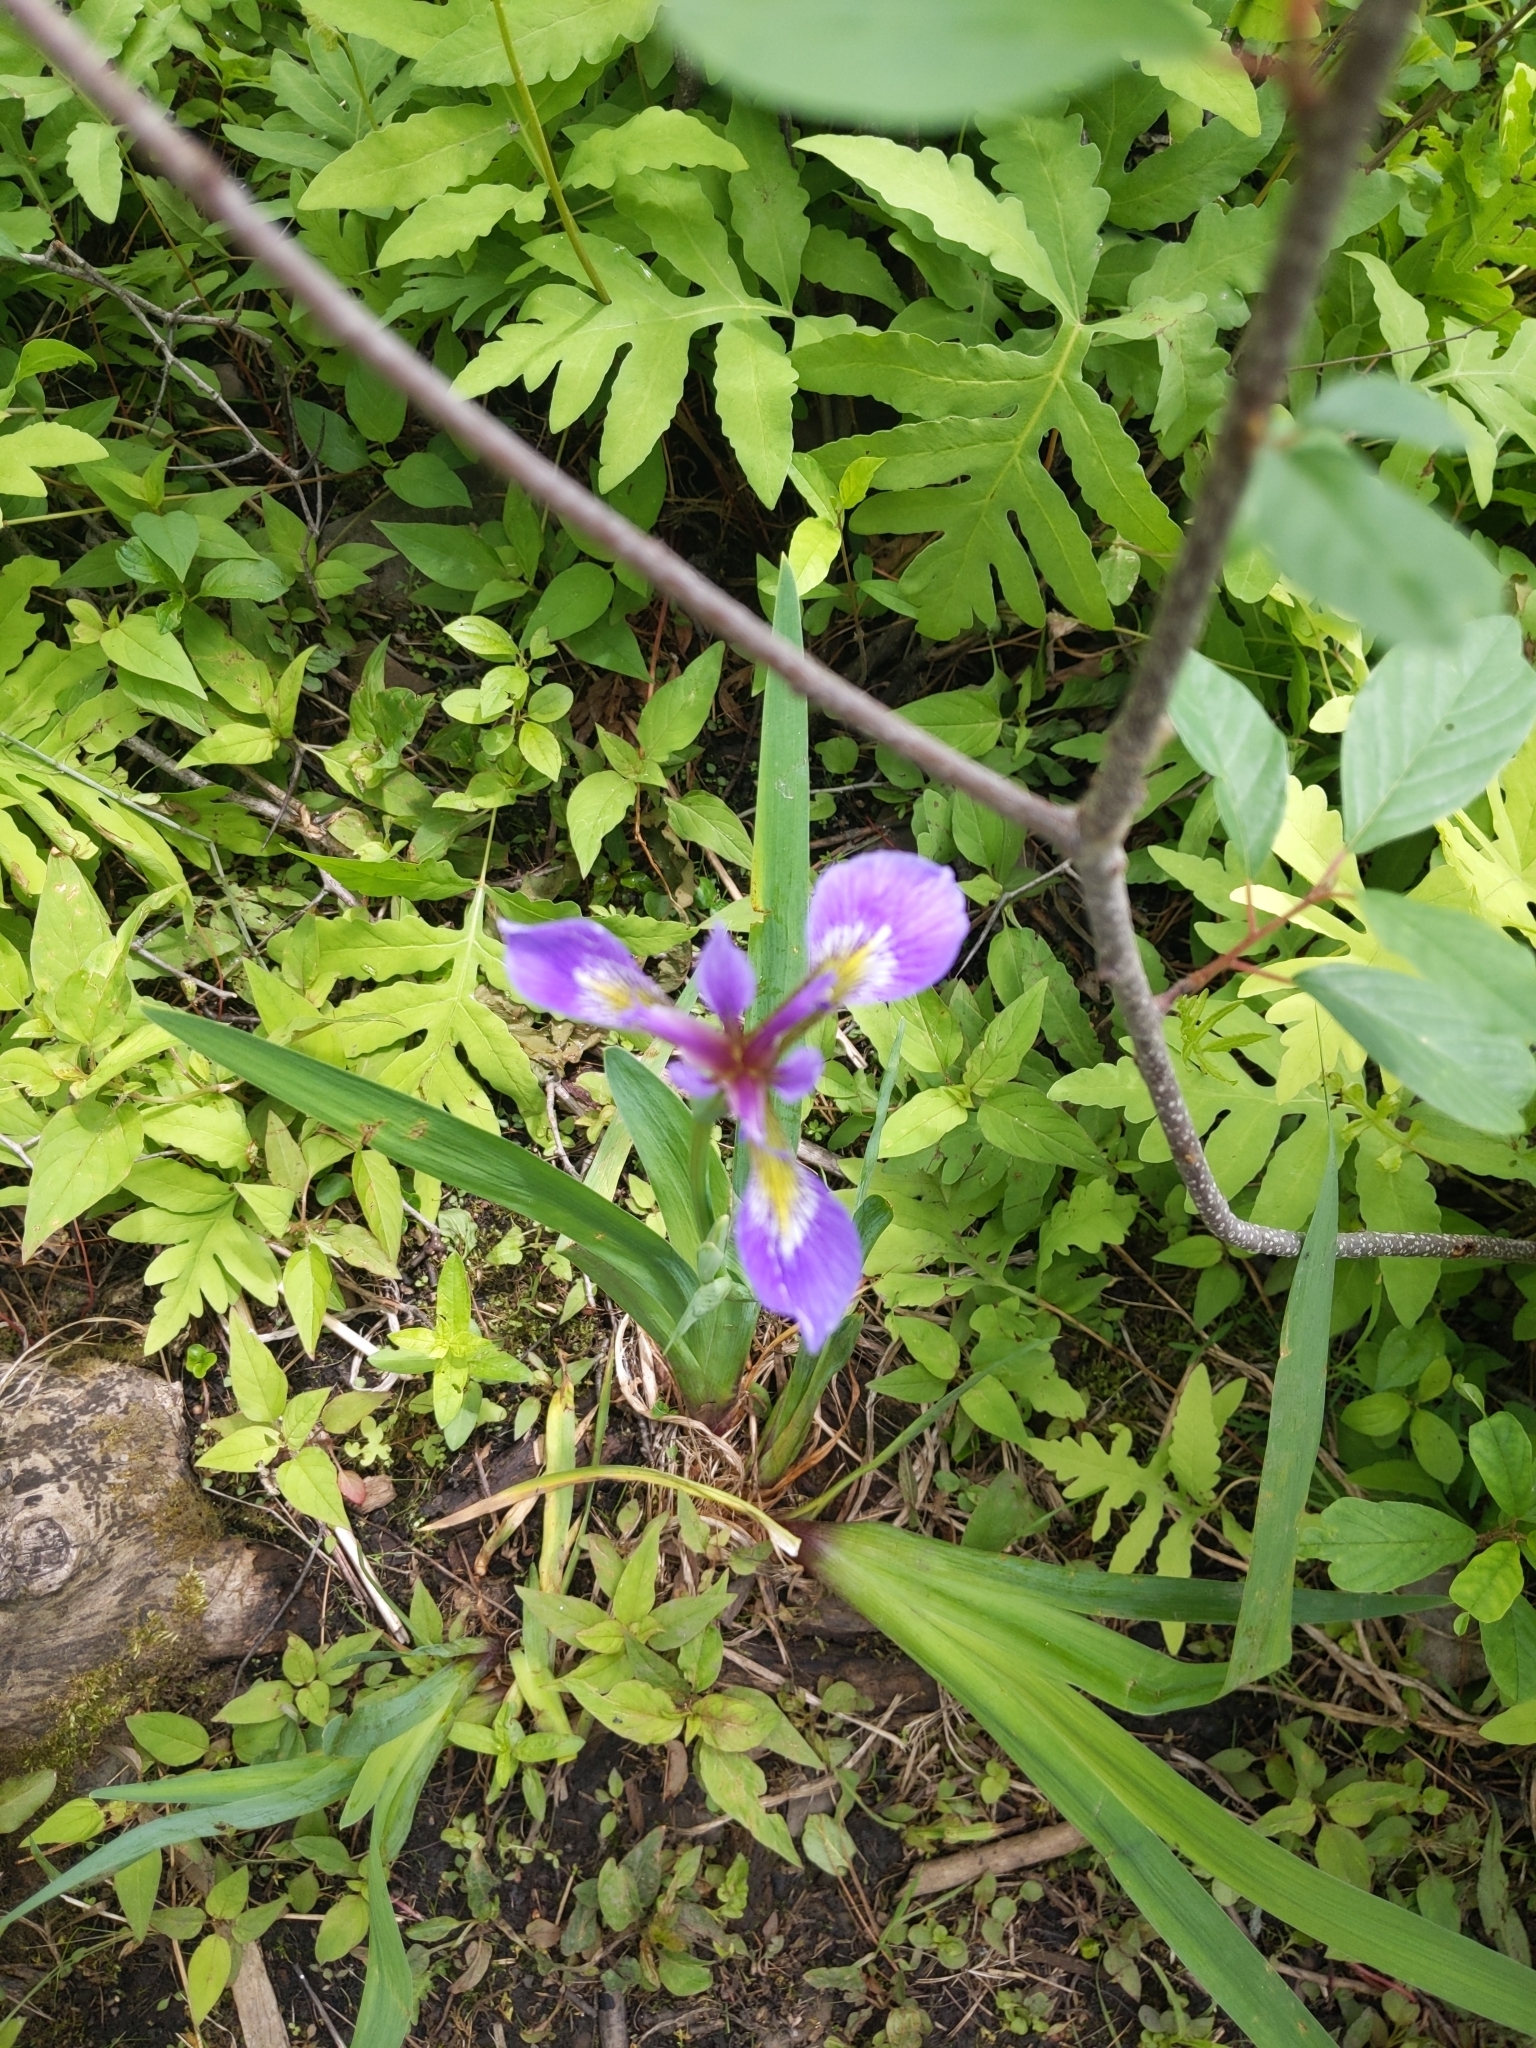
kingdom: Plantae
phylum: Tracheophyta
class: Liliopsida
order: Asparagales
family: Iridaceae
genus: Iris
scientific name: Iris versicolor
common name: Purple iris
